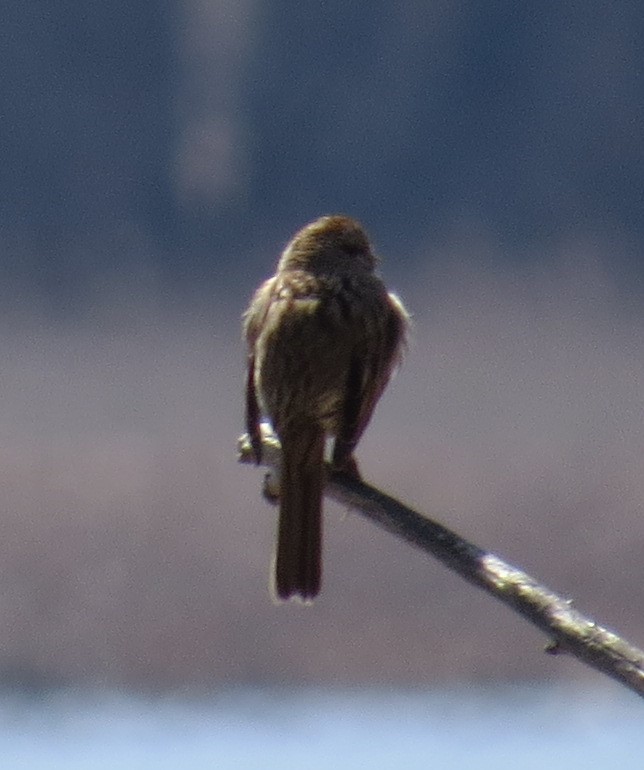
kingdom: Animalia
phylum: Chordata
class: Aves
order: Passeriformes
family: Passerellidae
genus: Melospiza
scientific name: Melospiza melodia
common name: Song sparrow
